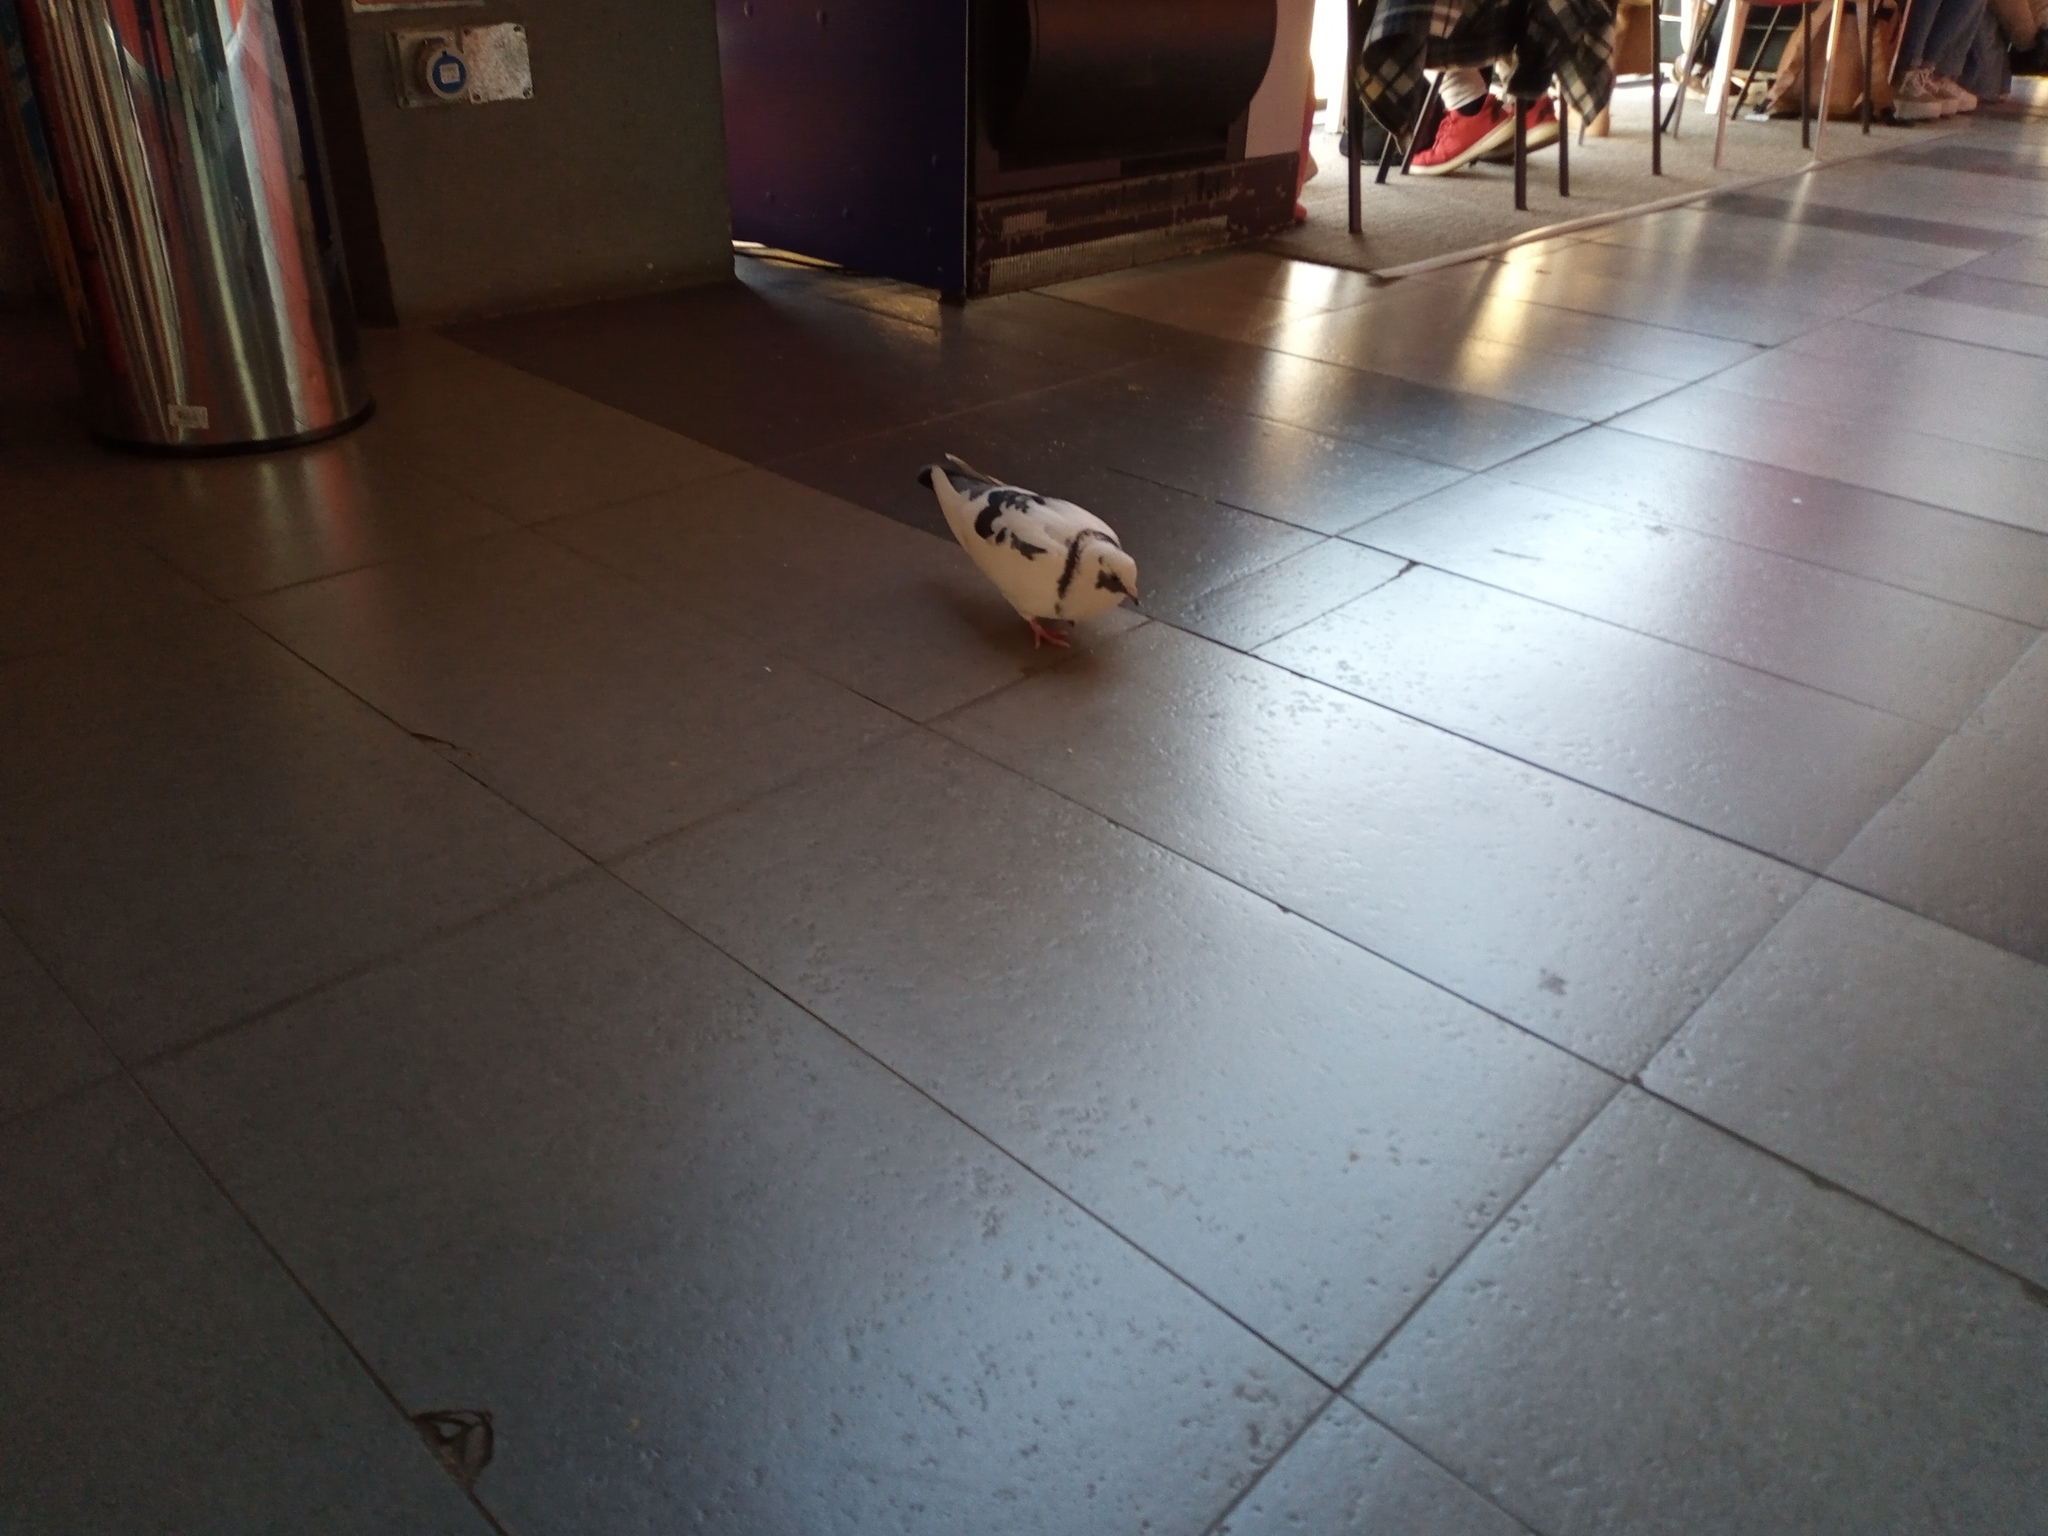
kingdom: Animalia
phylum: Chordata
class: Aves
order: Columbiformes
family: Columbidae
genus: Columba
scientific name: Columba livia
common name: Rock pigeon
